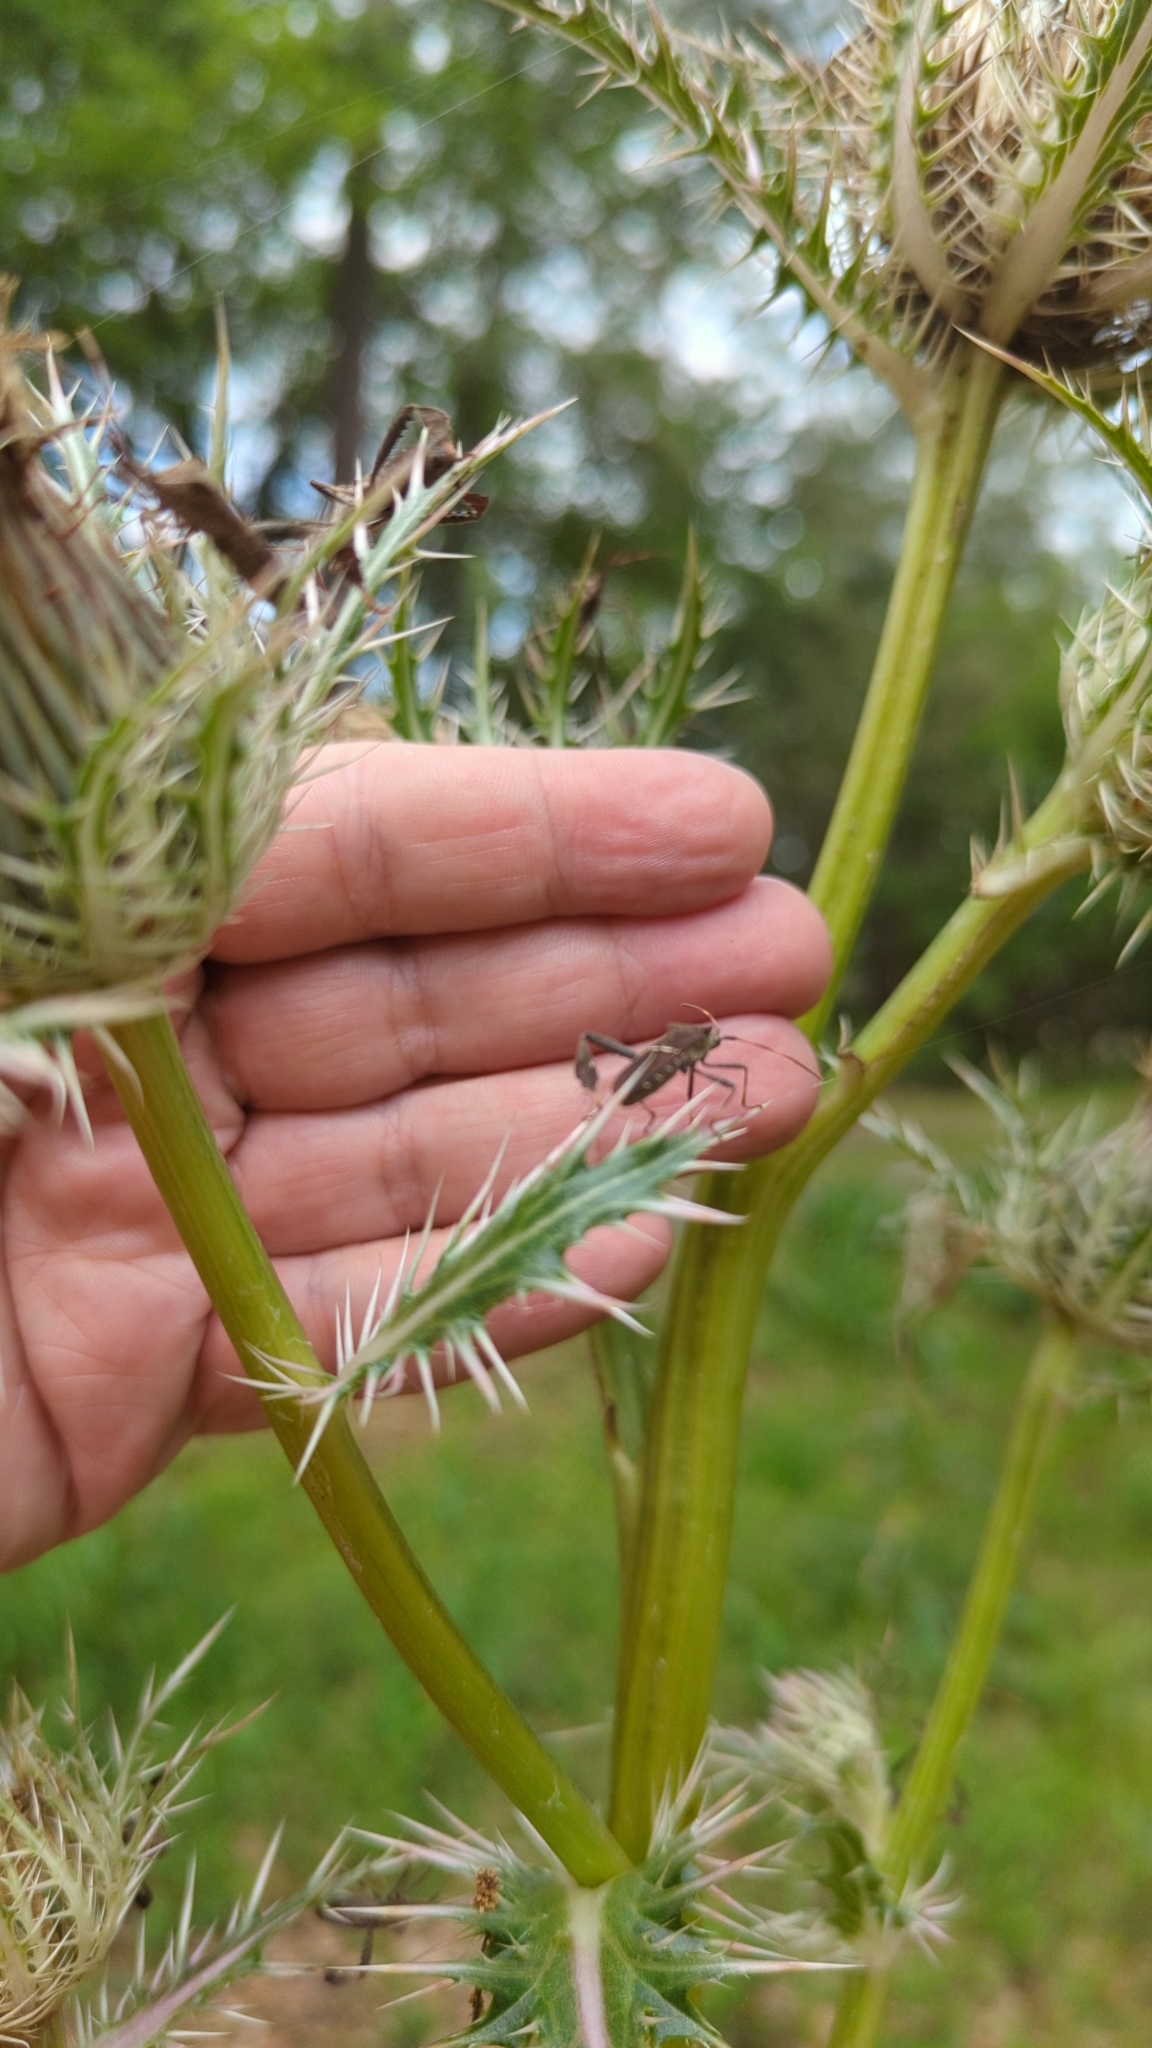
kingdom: Animalia
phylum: Arthropoda
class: Insecta
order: Hemiptera
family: Coreidae
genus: Leptoglossus
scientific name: Leptoglossus phyllopus
